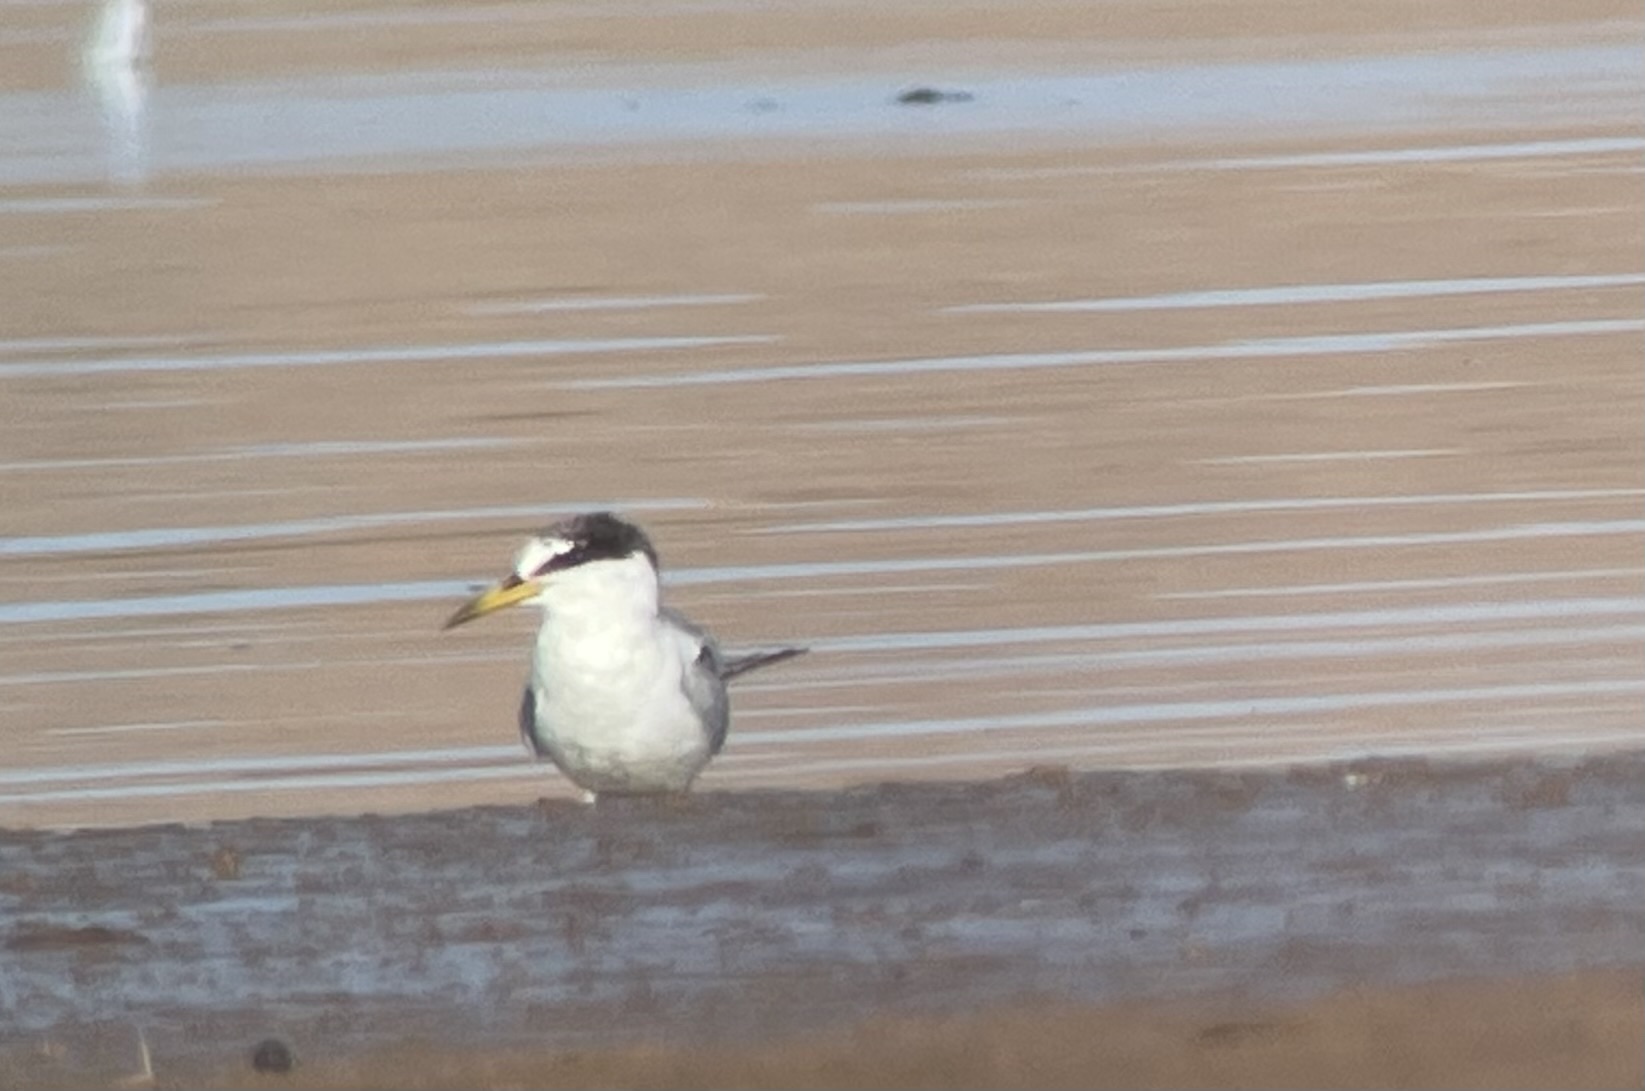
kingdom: Animalia
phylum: Chordata
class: Aves
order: Charadriiformes
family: Laridae
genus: Sternula
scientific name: Sternula albifrons
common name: Little tern
